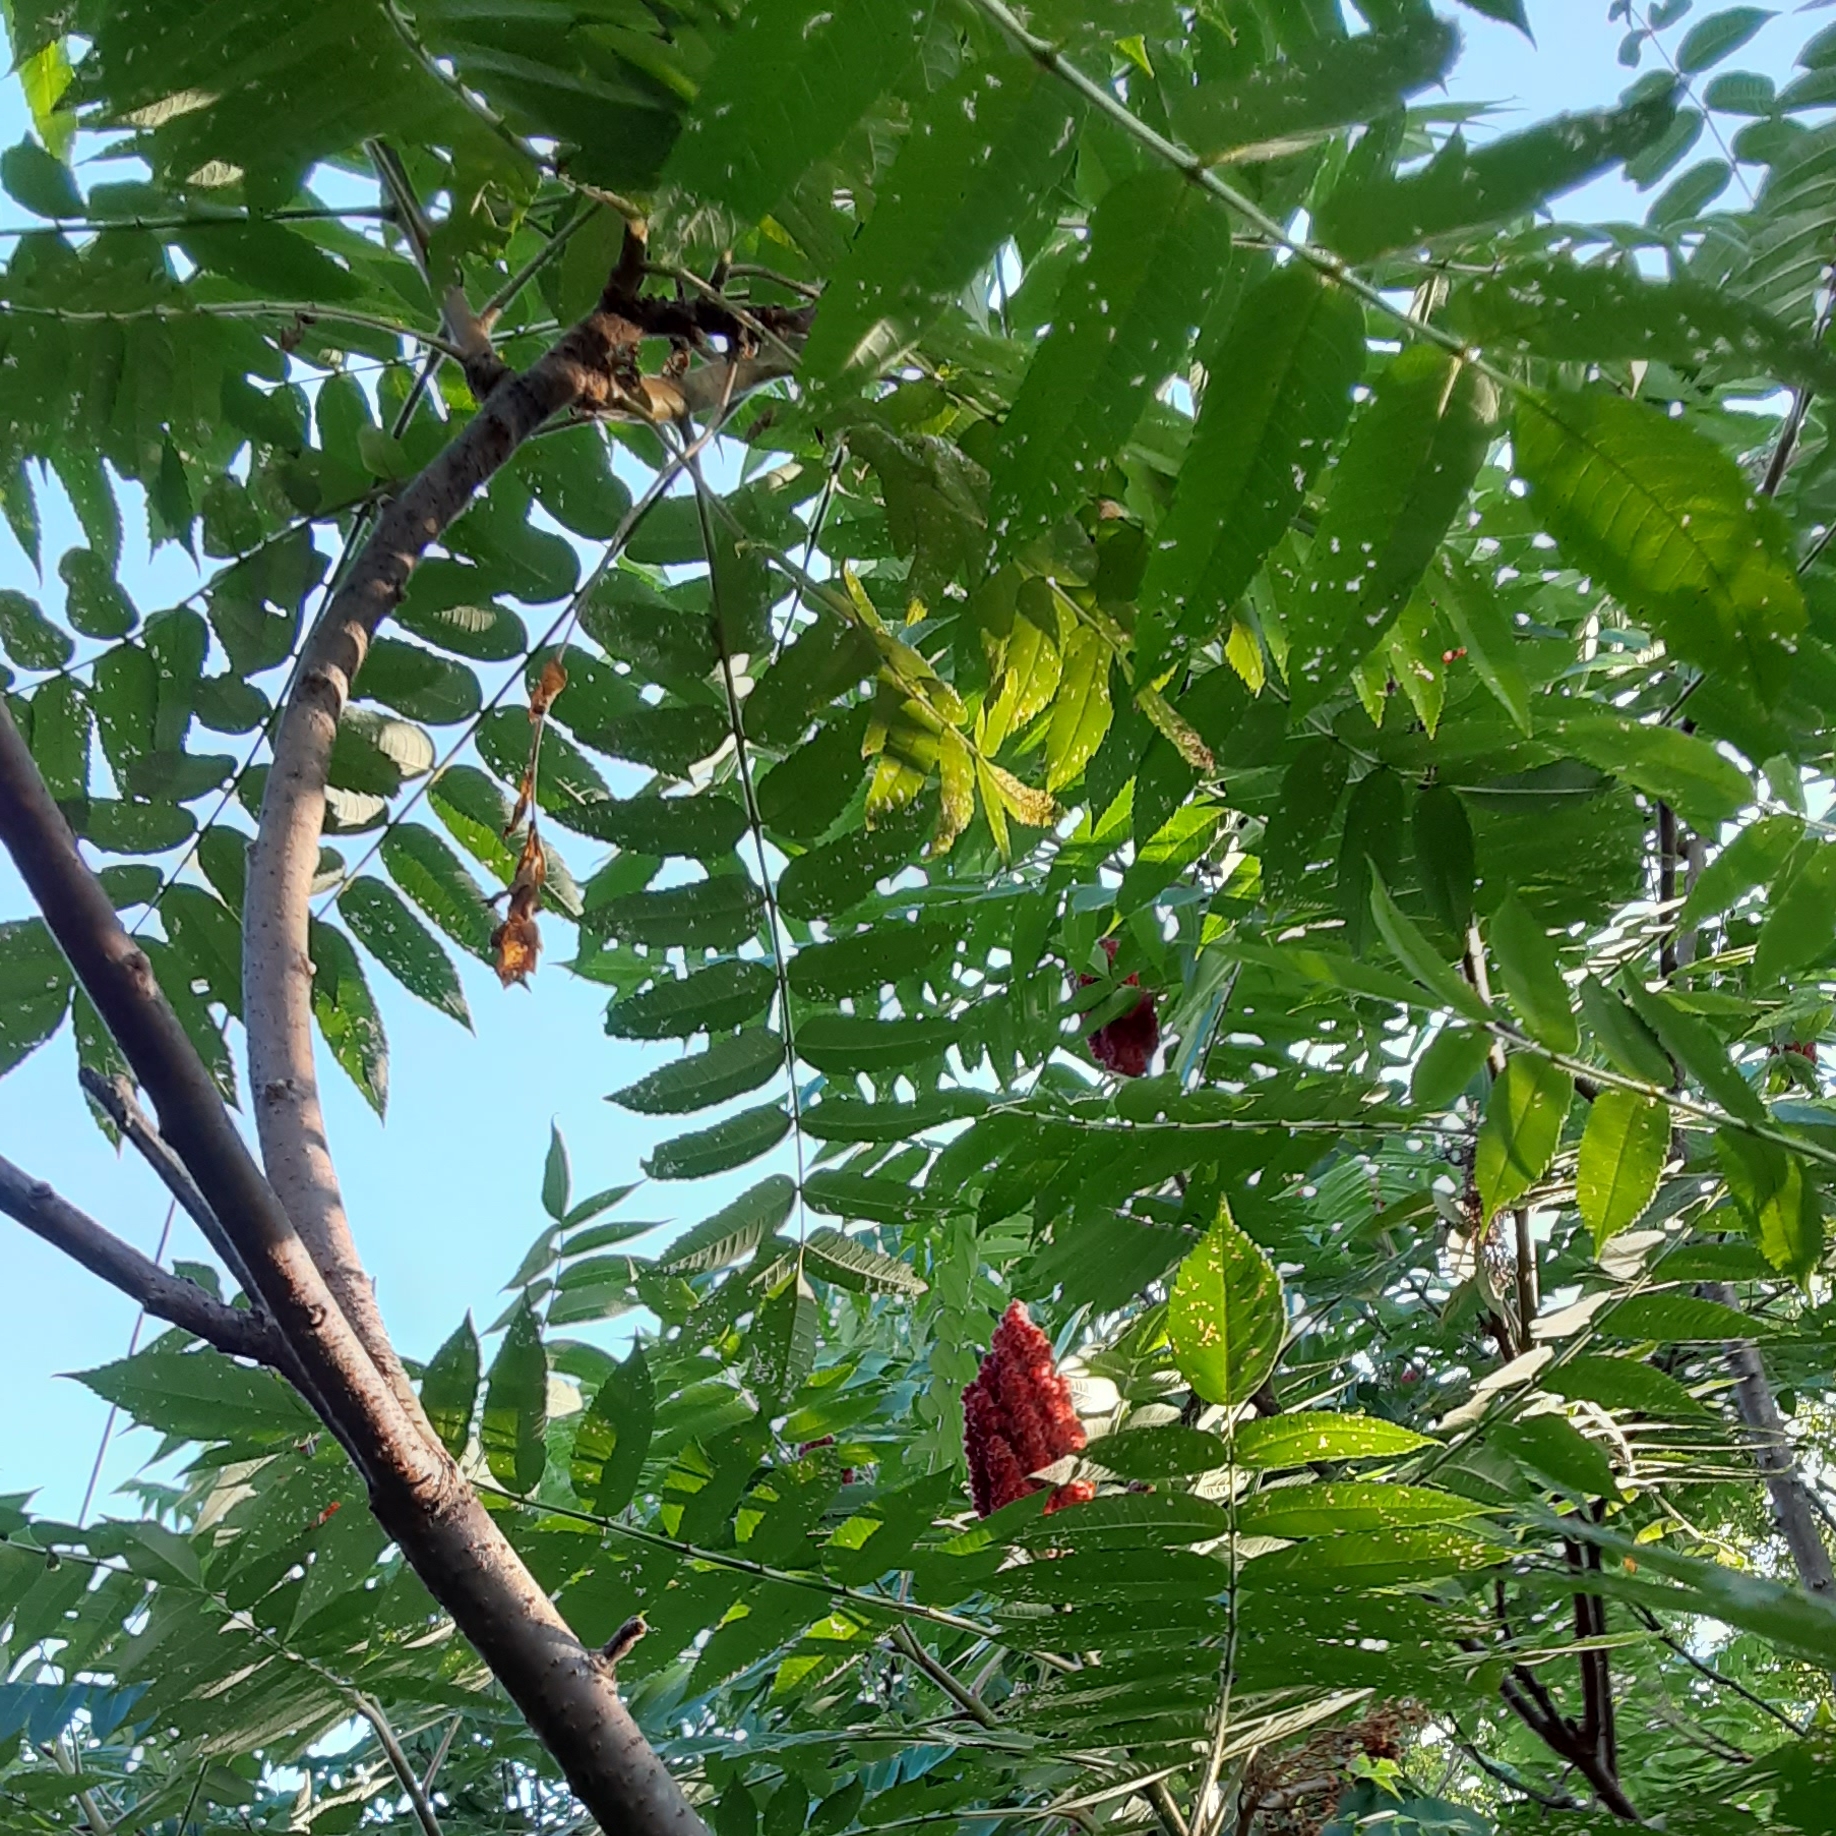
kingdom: Plantae
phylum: Tracheophyta
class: Magnoliopsida
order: Sapindales
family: Anacardiaceae
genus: Rhus
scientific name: Rhus typhina
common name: Staghorn sumac
